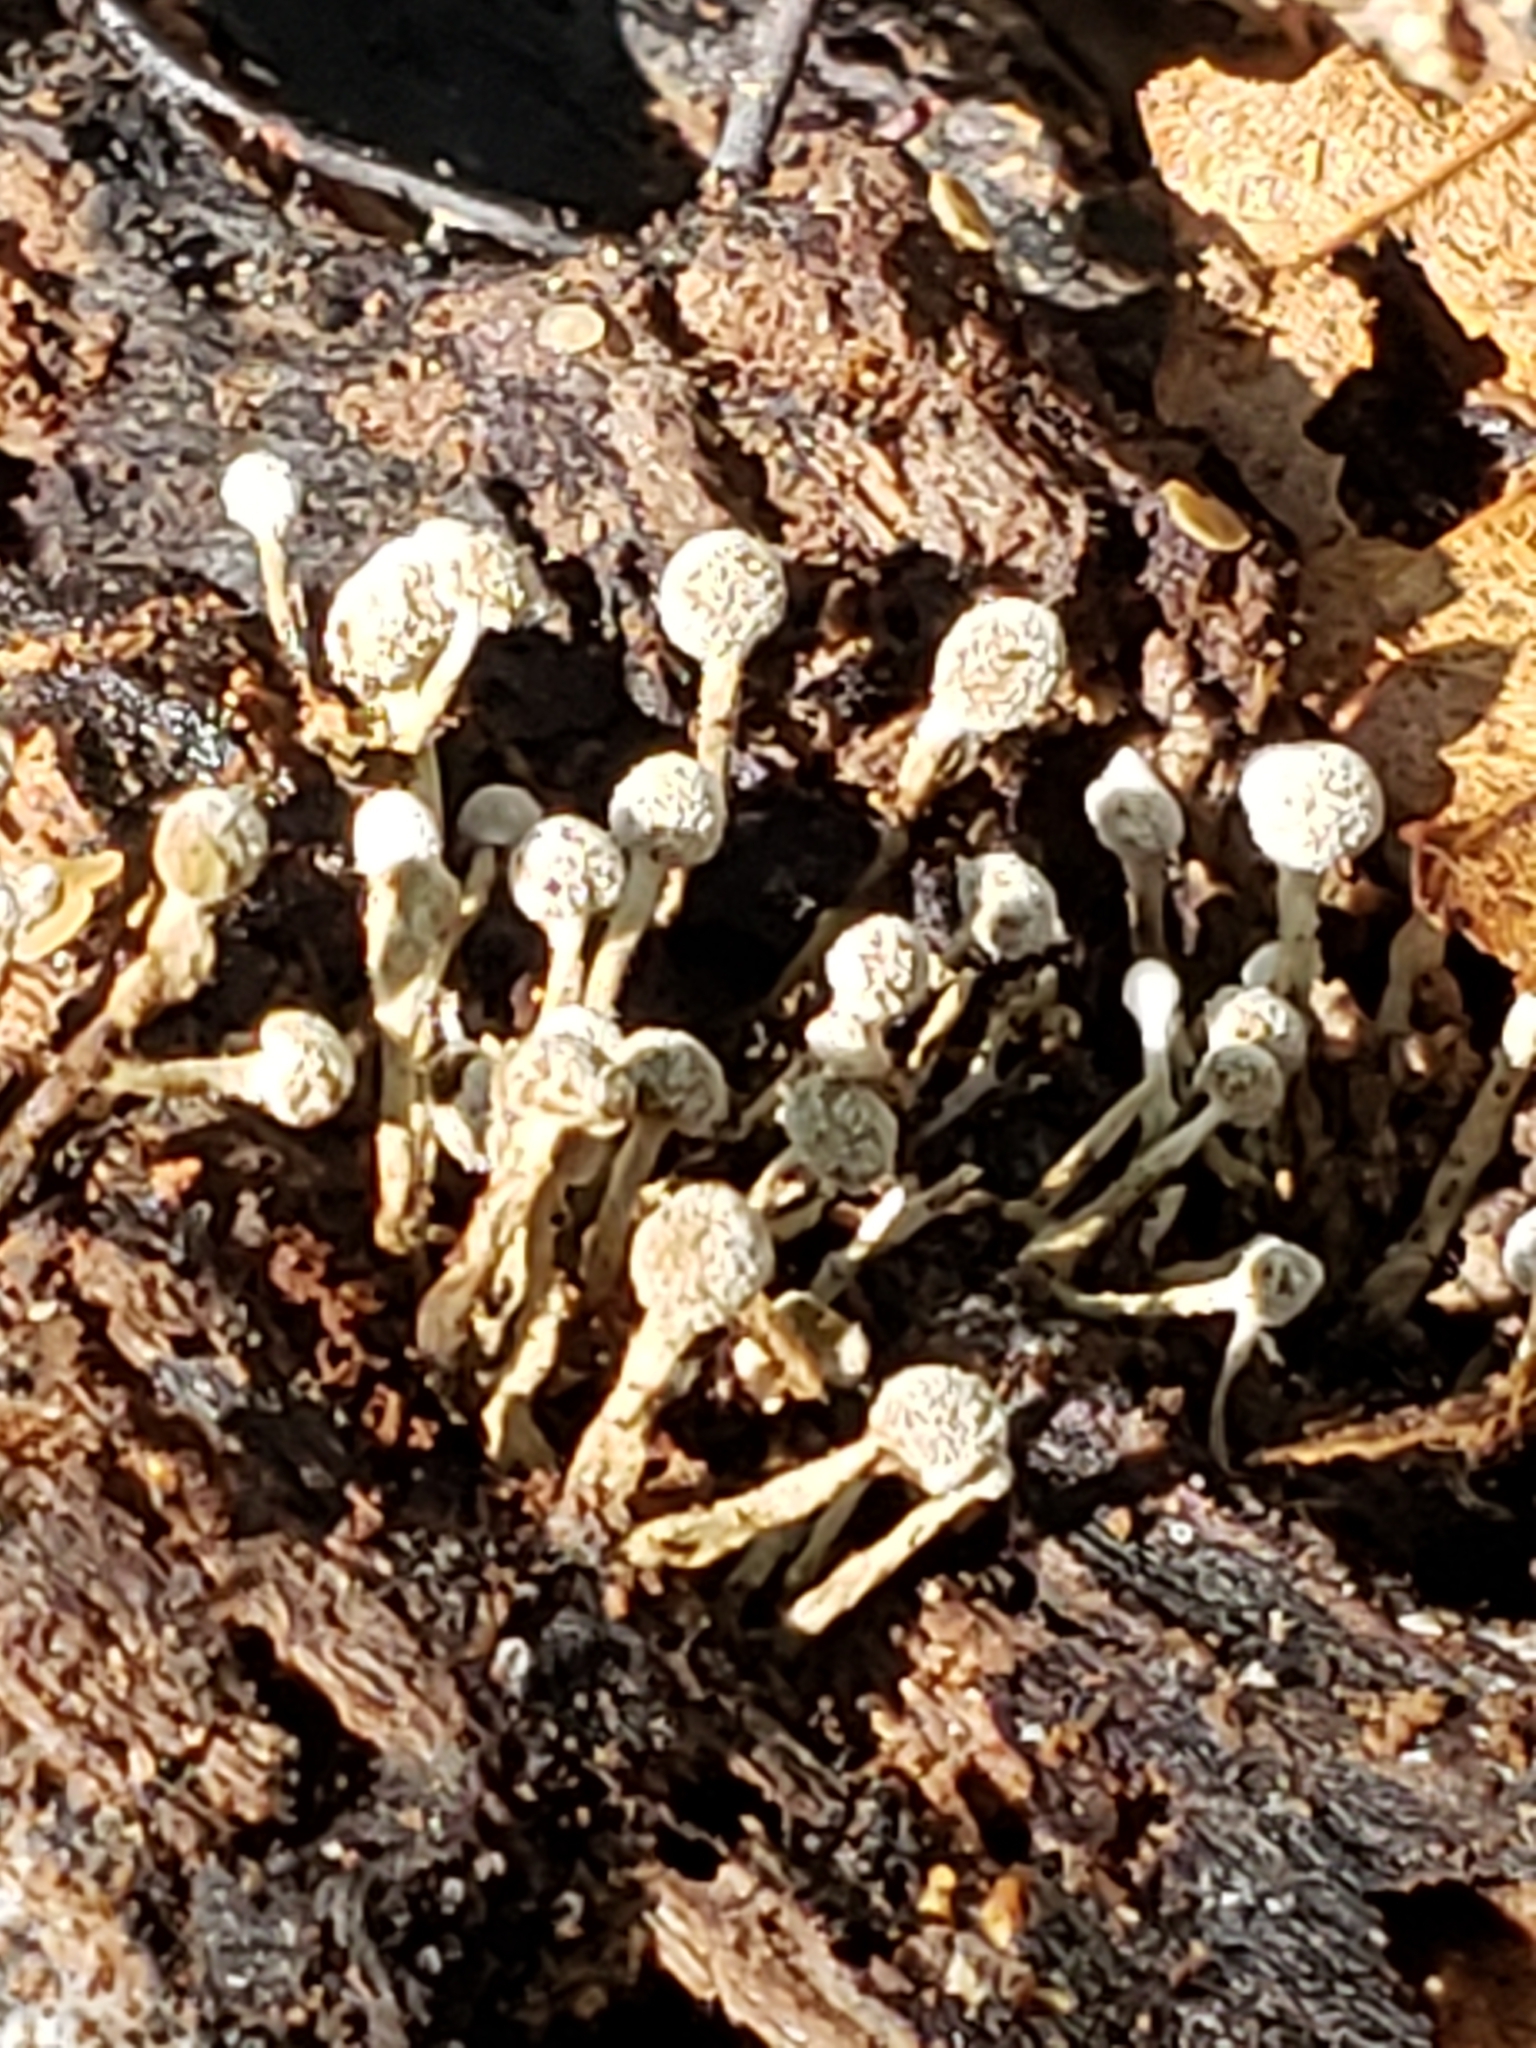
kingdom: Fungi
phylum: Basidiomycota
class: Atractiellomycetes
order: Atractiellales
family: Phleogenaceae
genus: Phleogena
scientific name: Phleogena faginea
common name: Fenugreek stalkball
